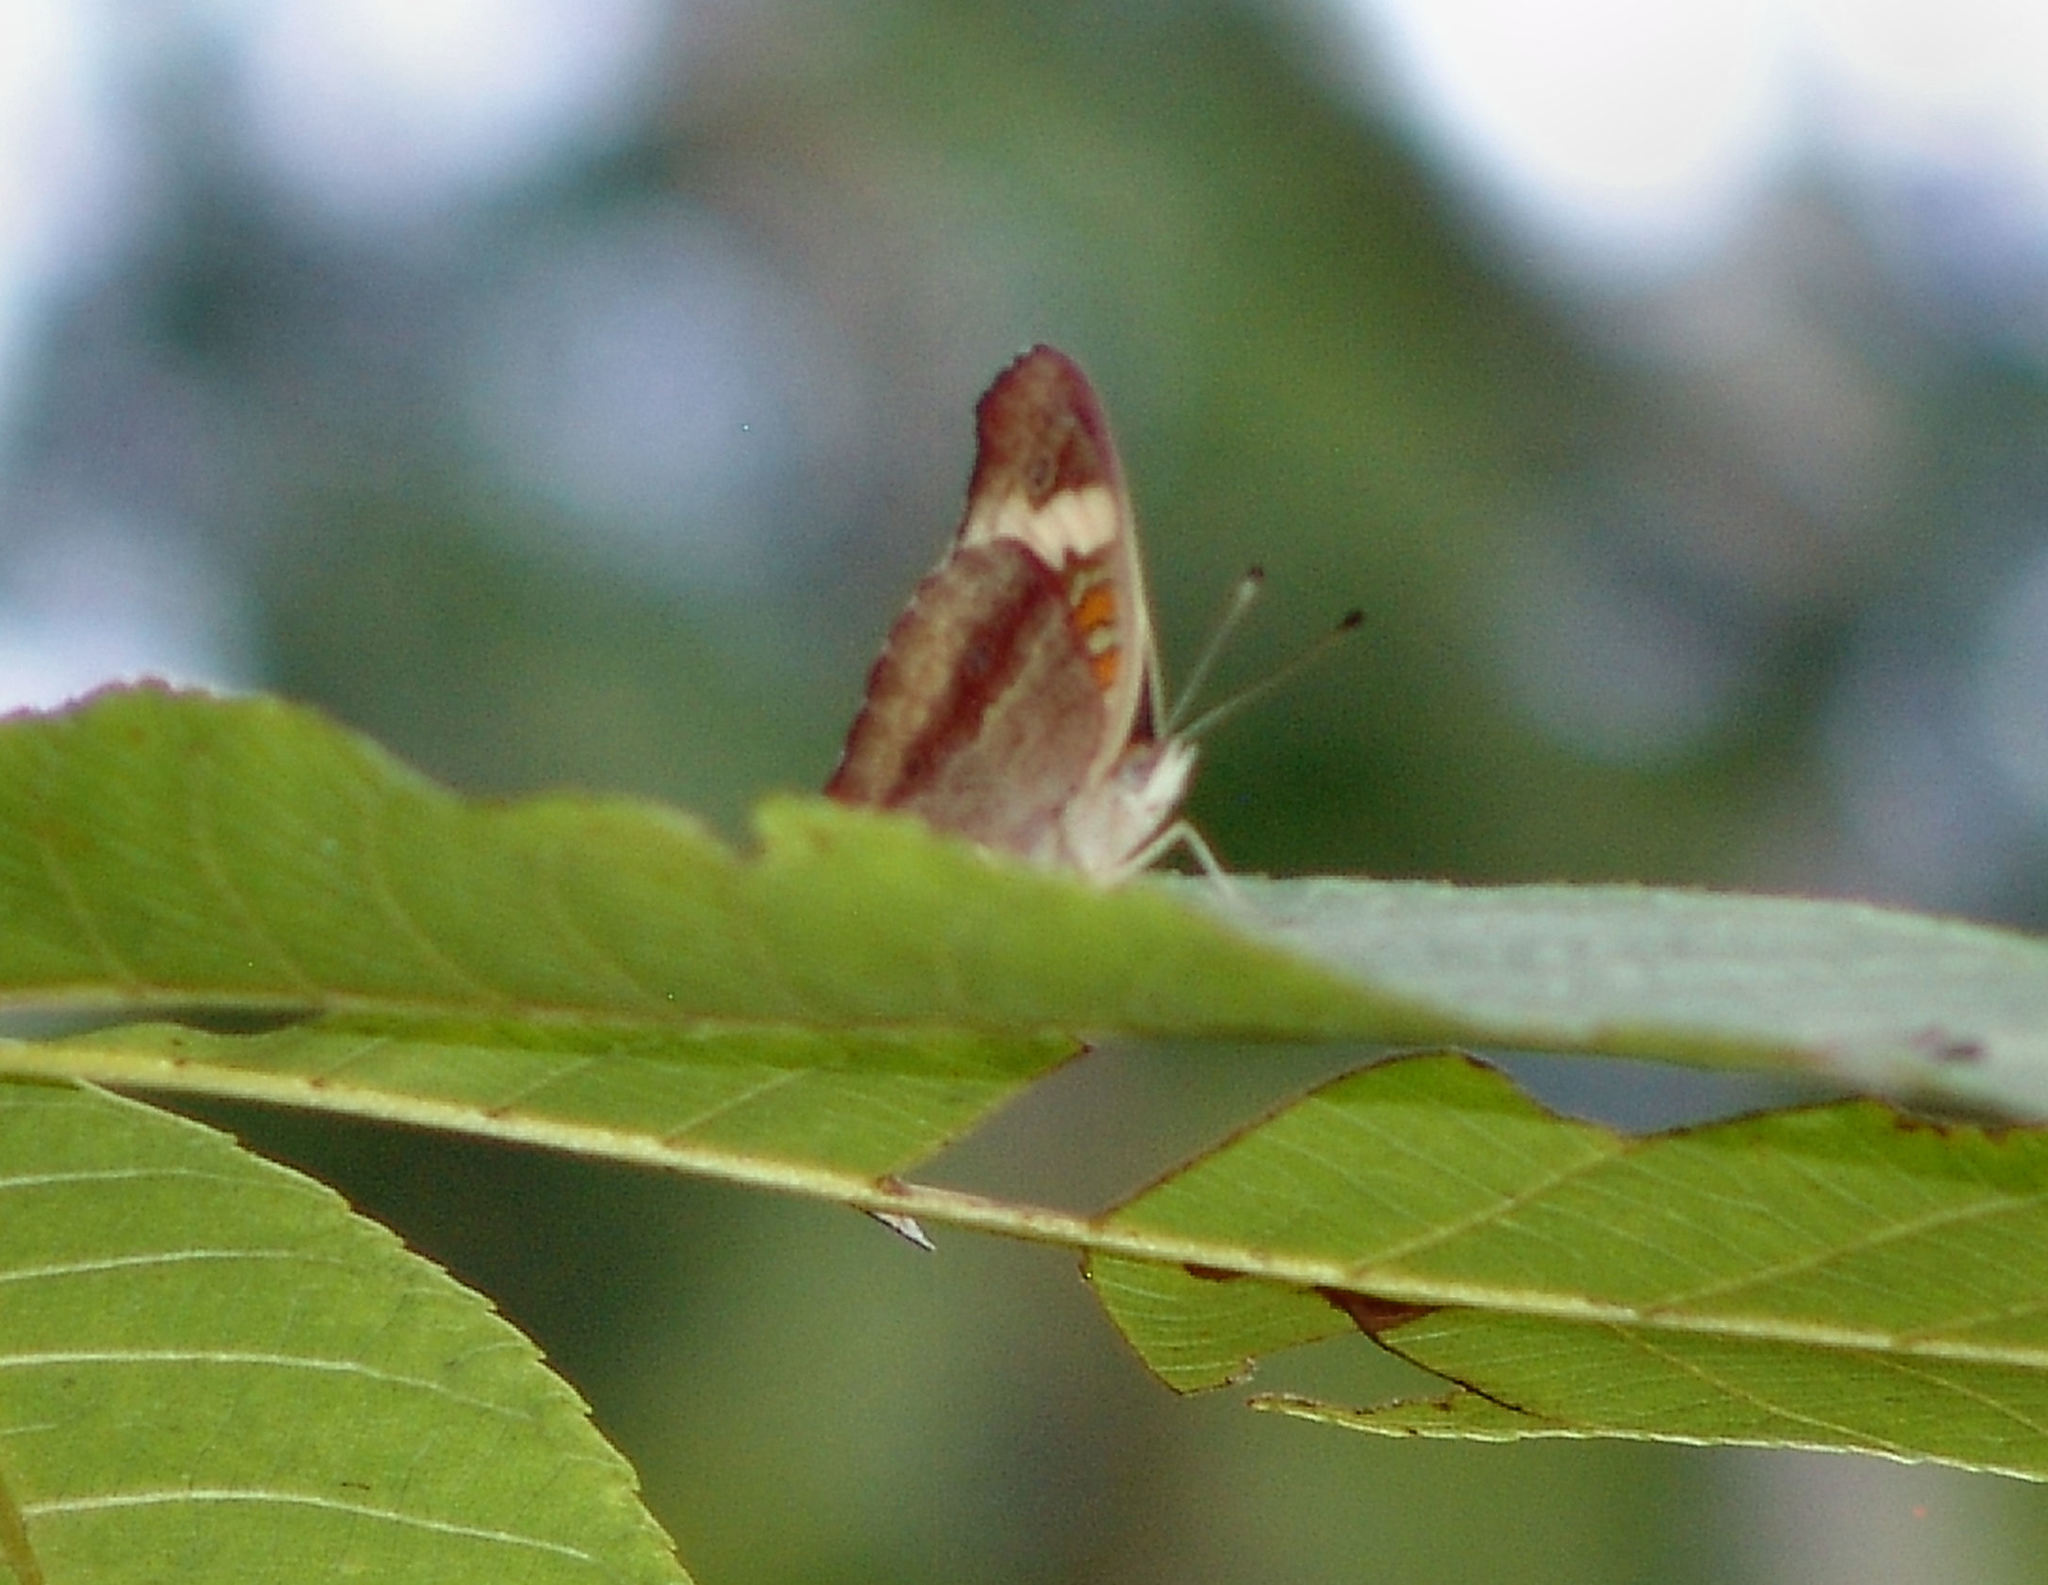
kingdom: Animalia
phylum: Arthropoda
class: Insecta
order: Lepidoptera
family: Nymphalidae
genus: Junonia
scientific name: Junonia coenia
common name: Common buckeye
